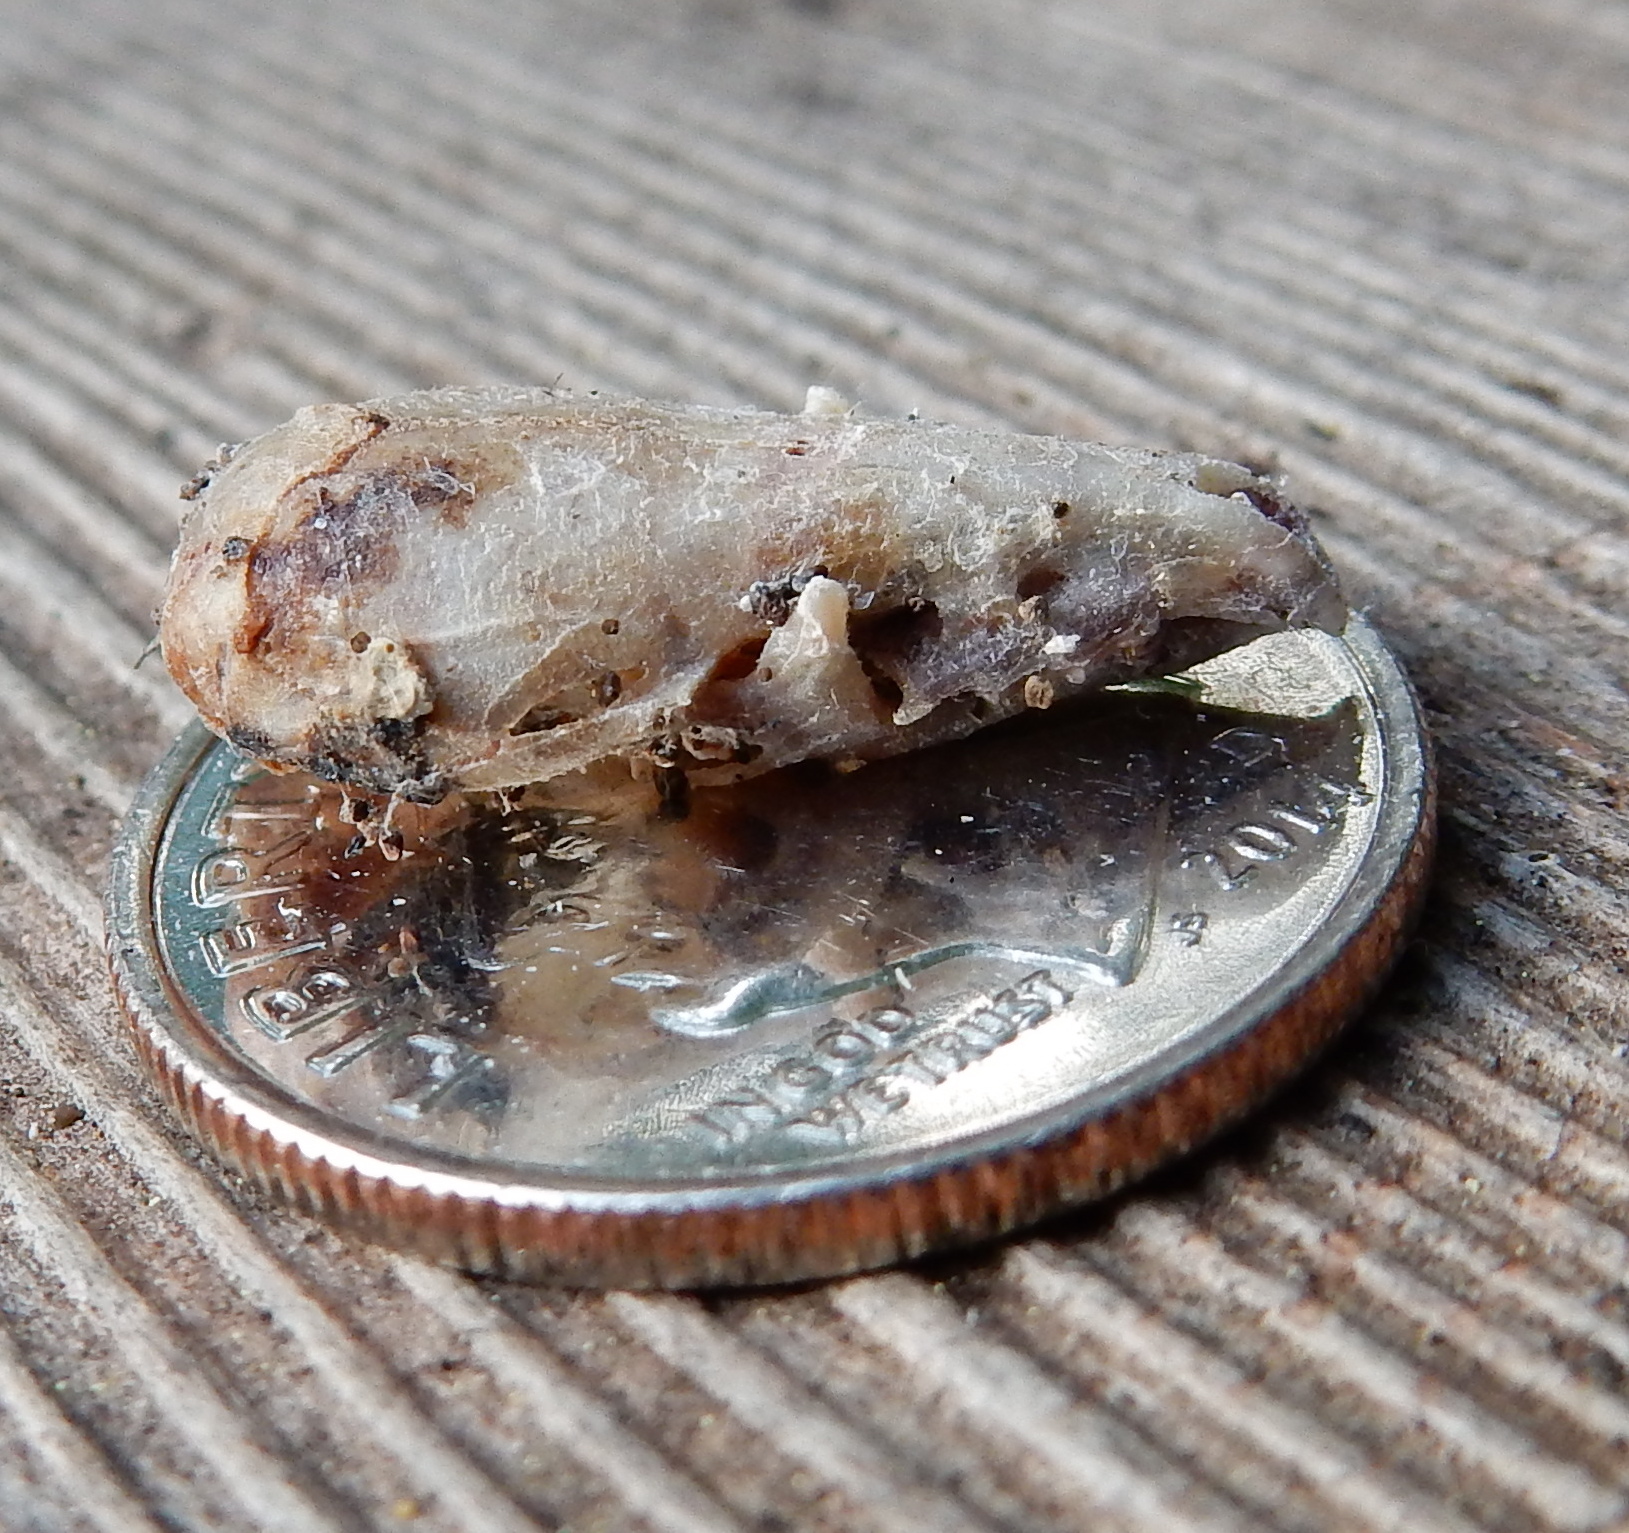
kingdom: Animalia
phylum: Chordata
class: Mammalia
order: Soricomorpha
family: Soricidae
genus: Sorex
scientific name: Sorex trowbridgii
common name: Trowbridge's shrew
